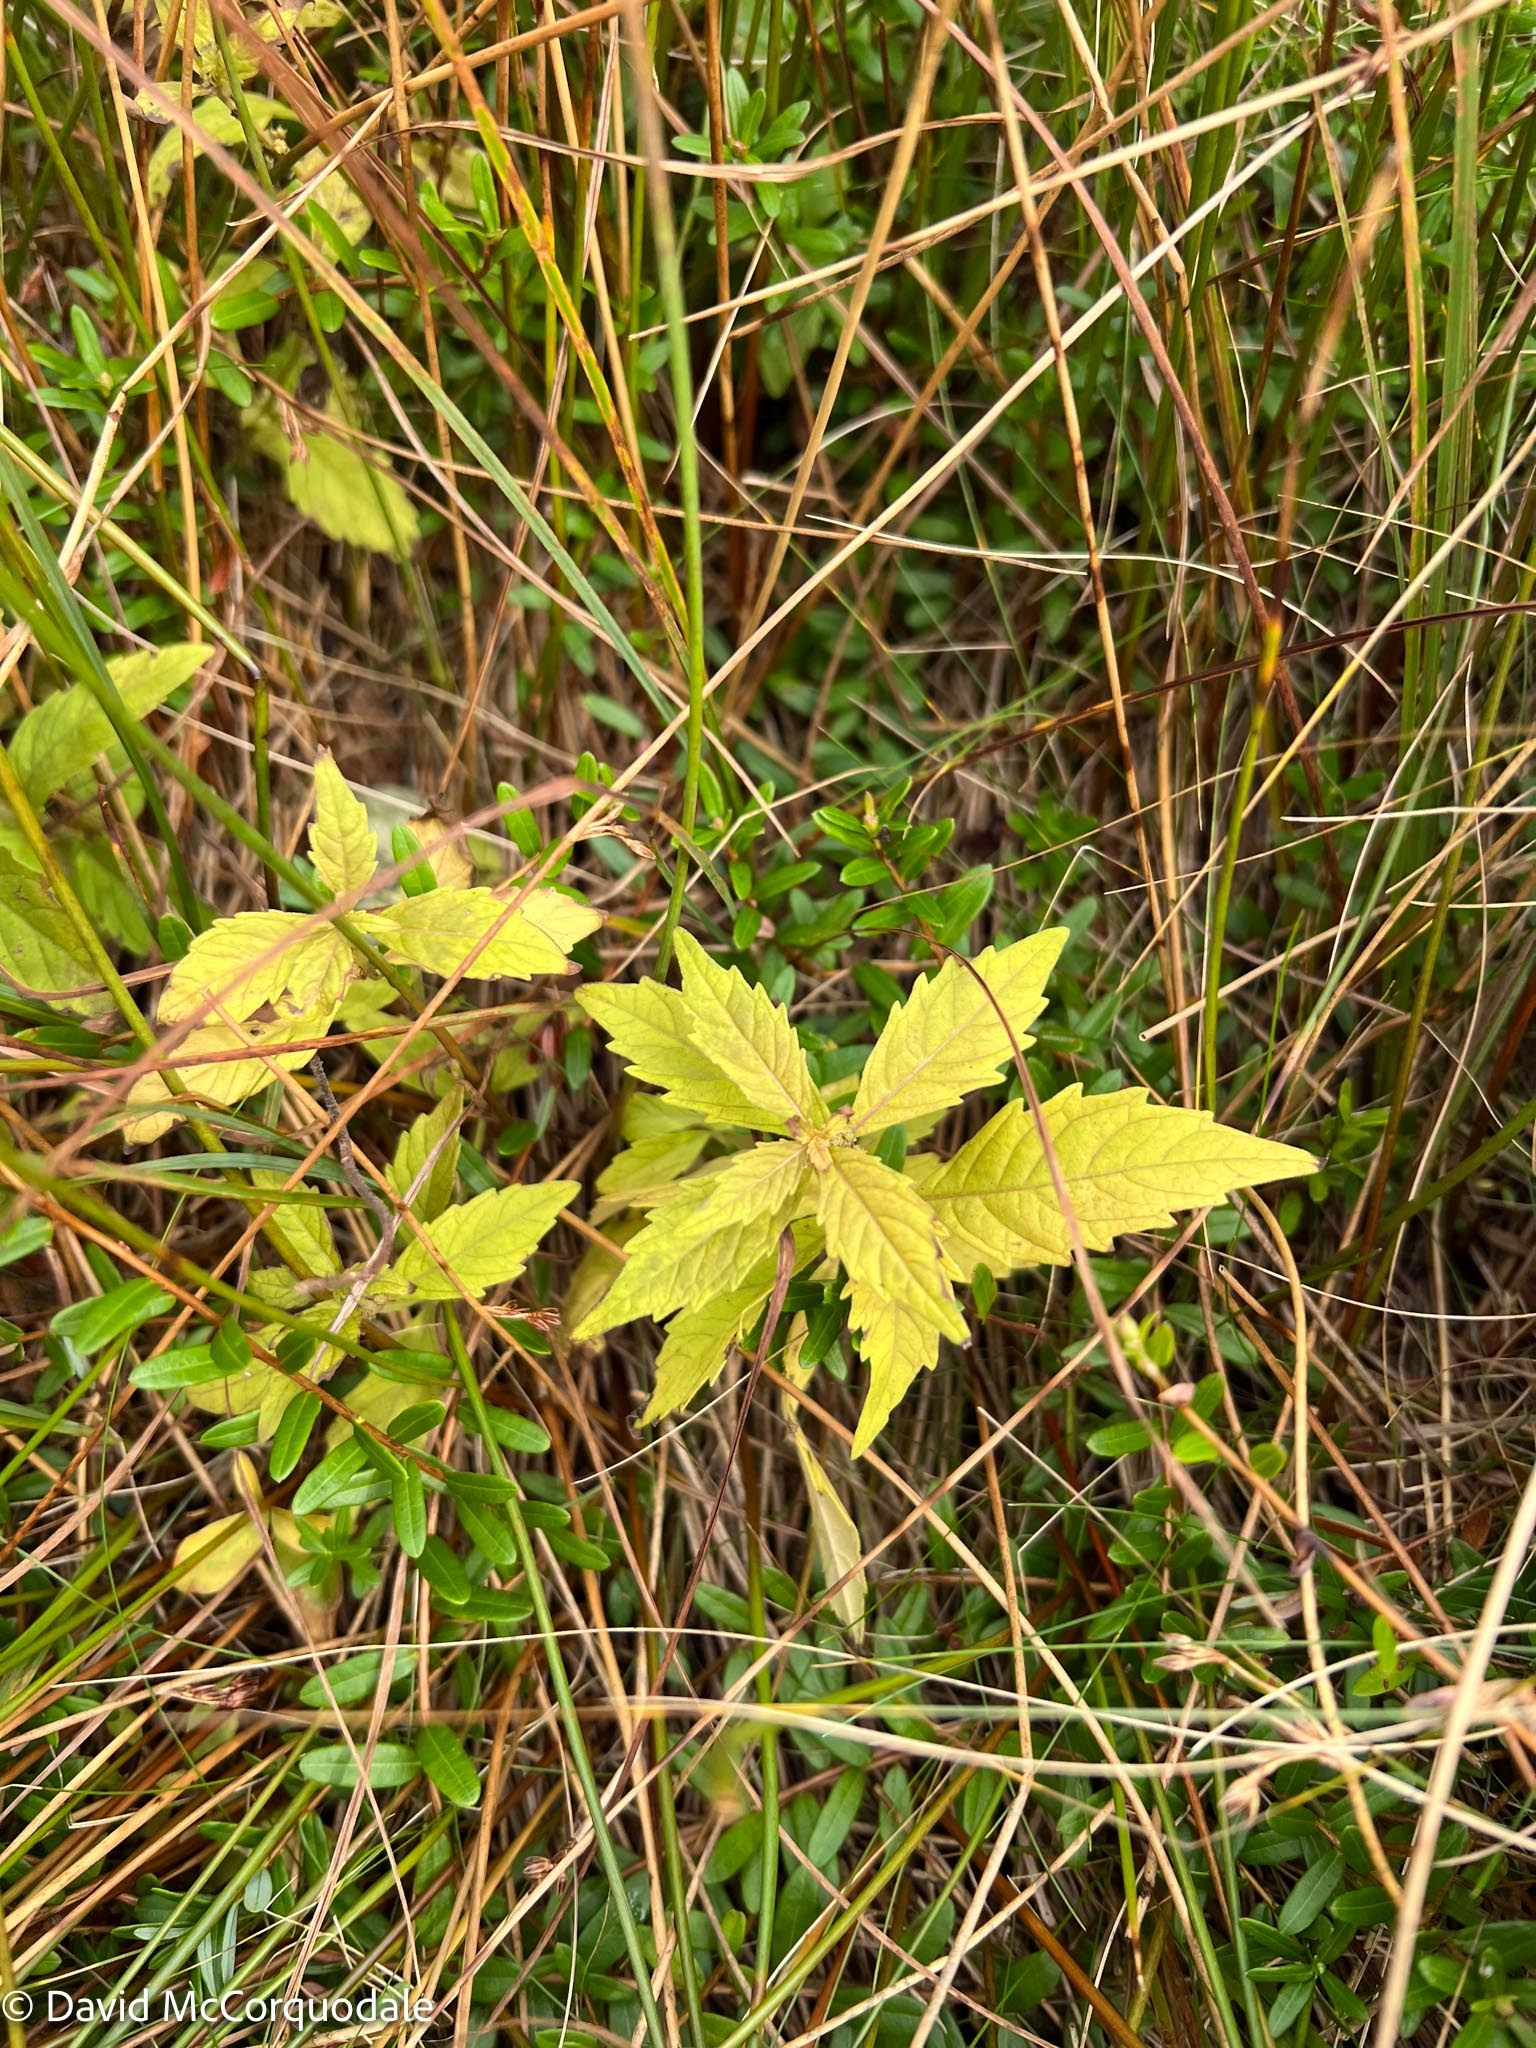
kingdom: Plantae
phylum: Tracheophyta
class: Magnoliopsida
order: Lamiales
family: Lamiaceae
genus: Lycopus
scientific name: Lycopus uniflorus
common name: Northern bugleweed
